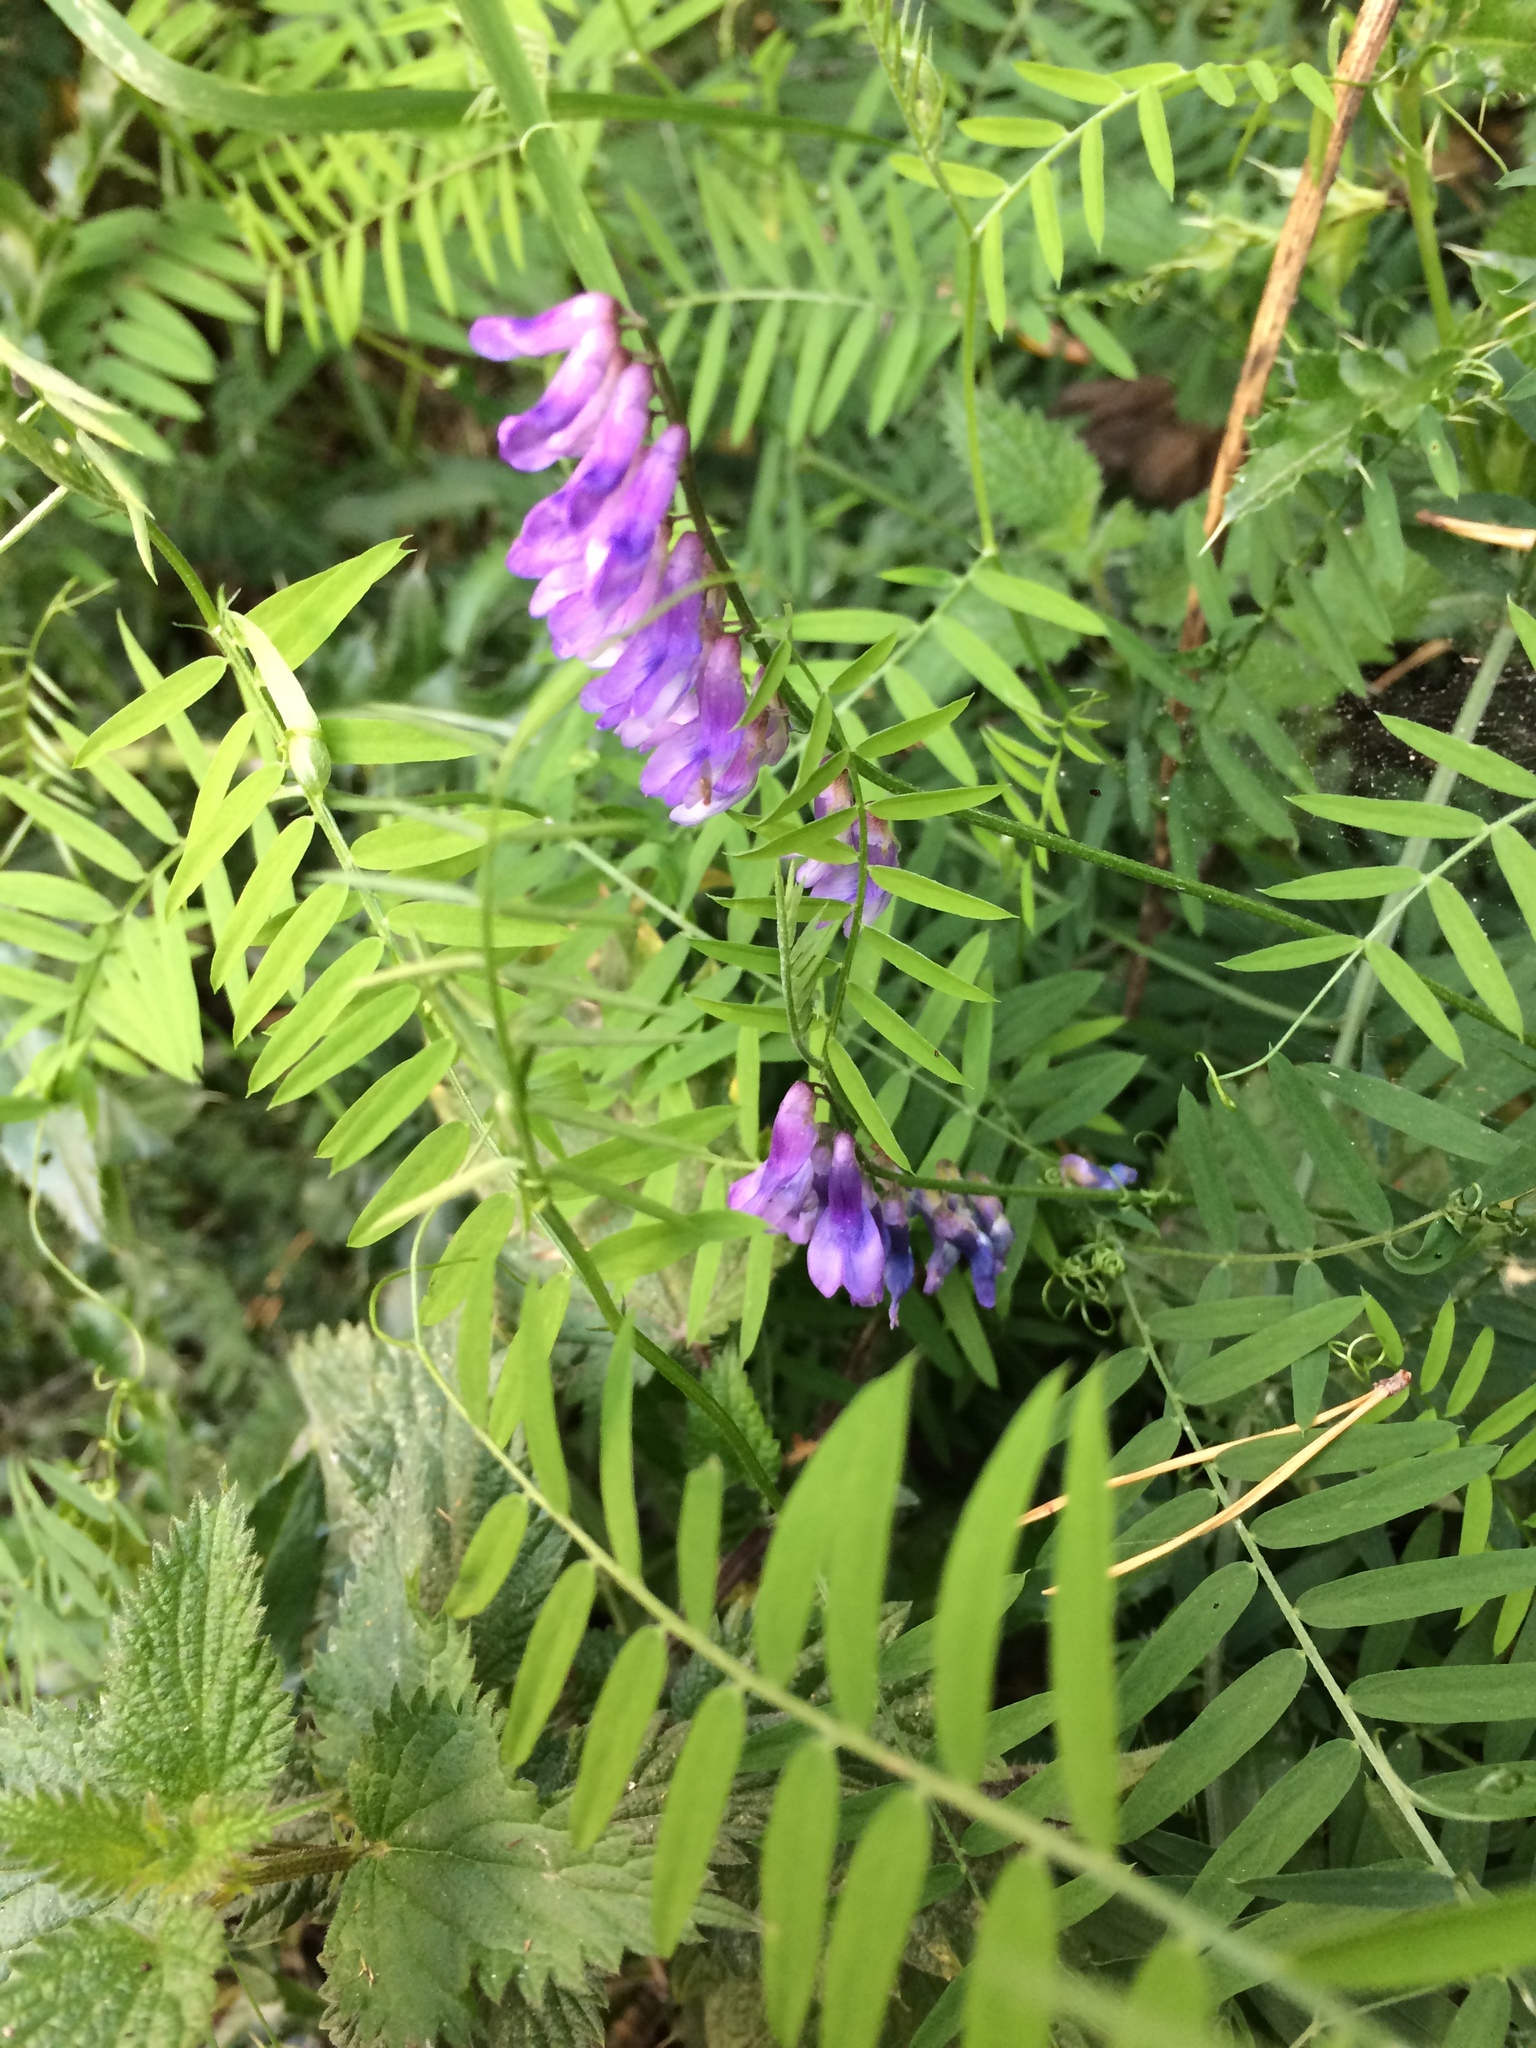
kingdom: Plantae
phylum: Tracheophyta
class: Magnoliopsida
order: Fabales
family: Fabaceae
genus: Vicia
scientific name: Vicia cracca
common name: Bird vetch
